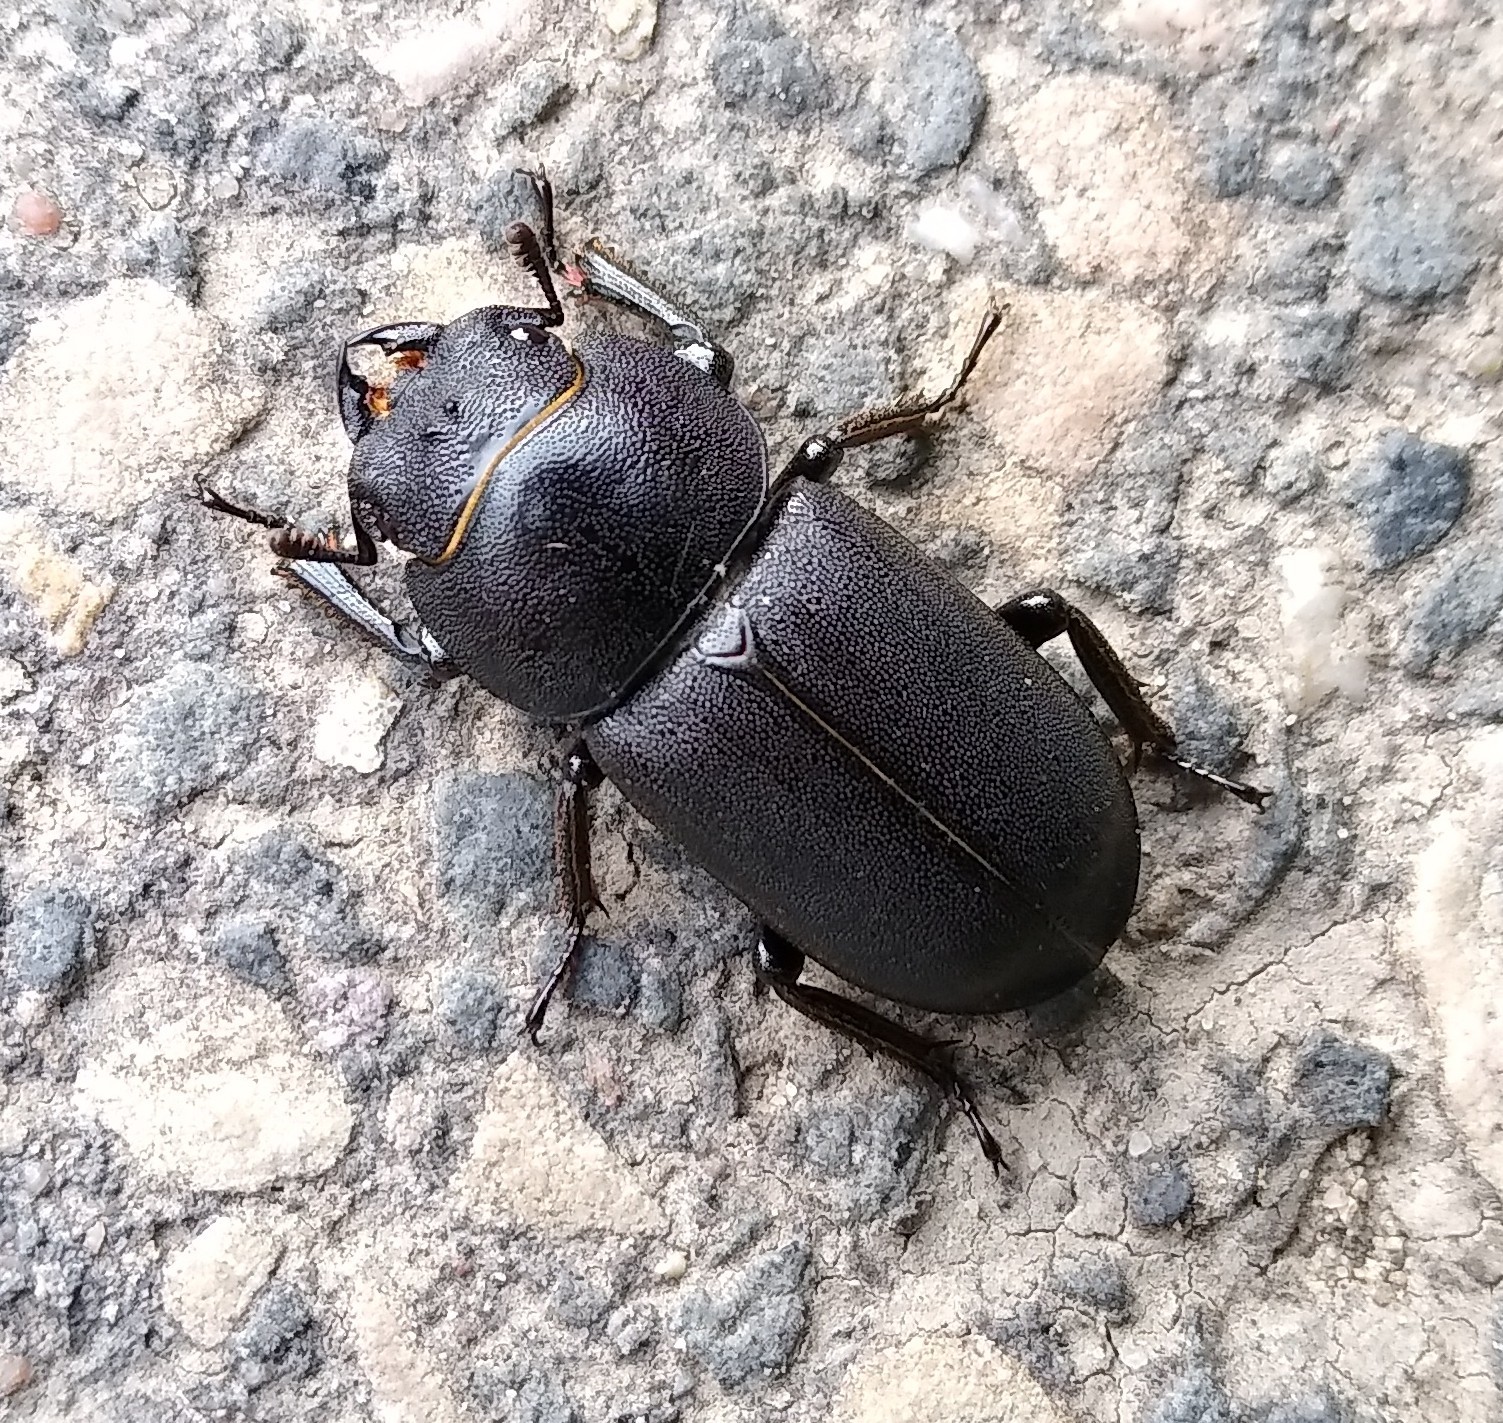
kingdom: Animalia
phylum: Arthropoda
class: Insecta
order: Coleoptera
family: Lucanidae
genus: Dorcus
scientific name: Dorcus parallelipipedus
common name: Lesser stag beetle
